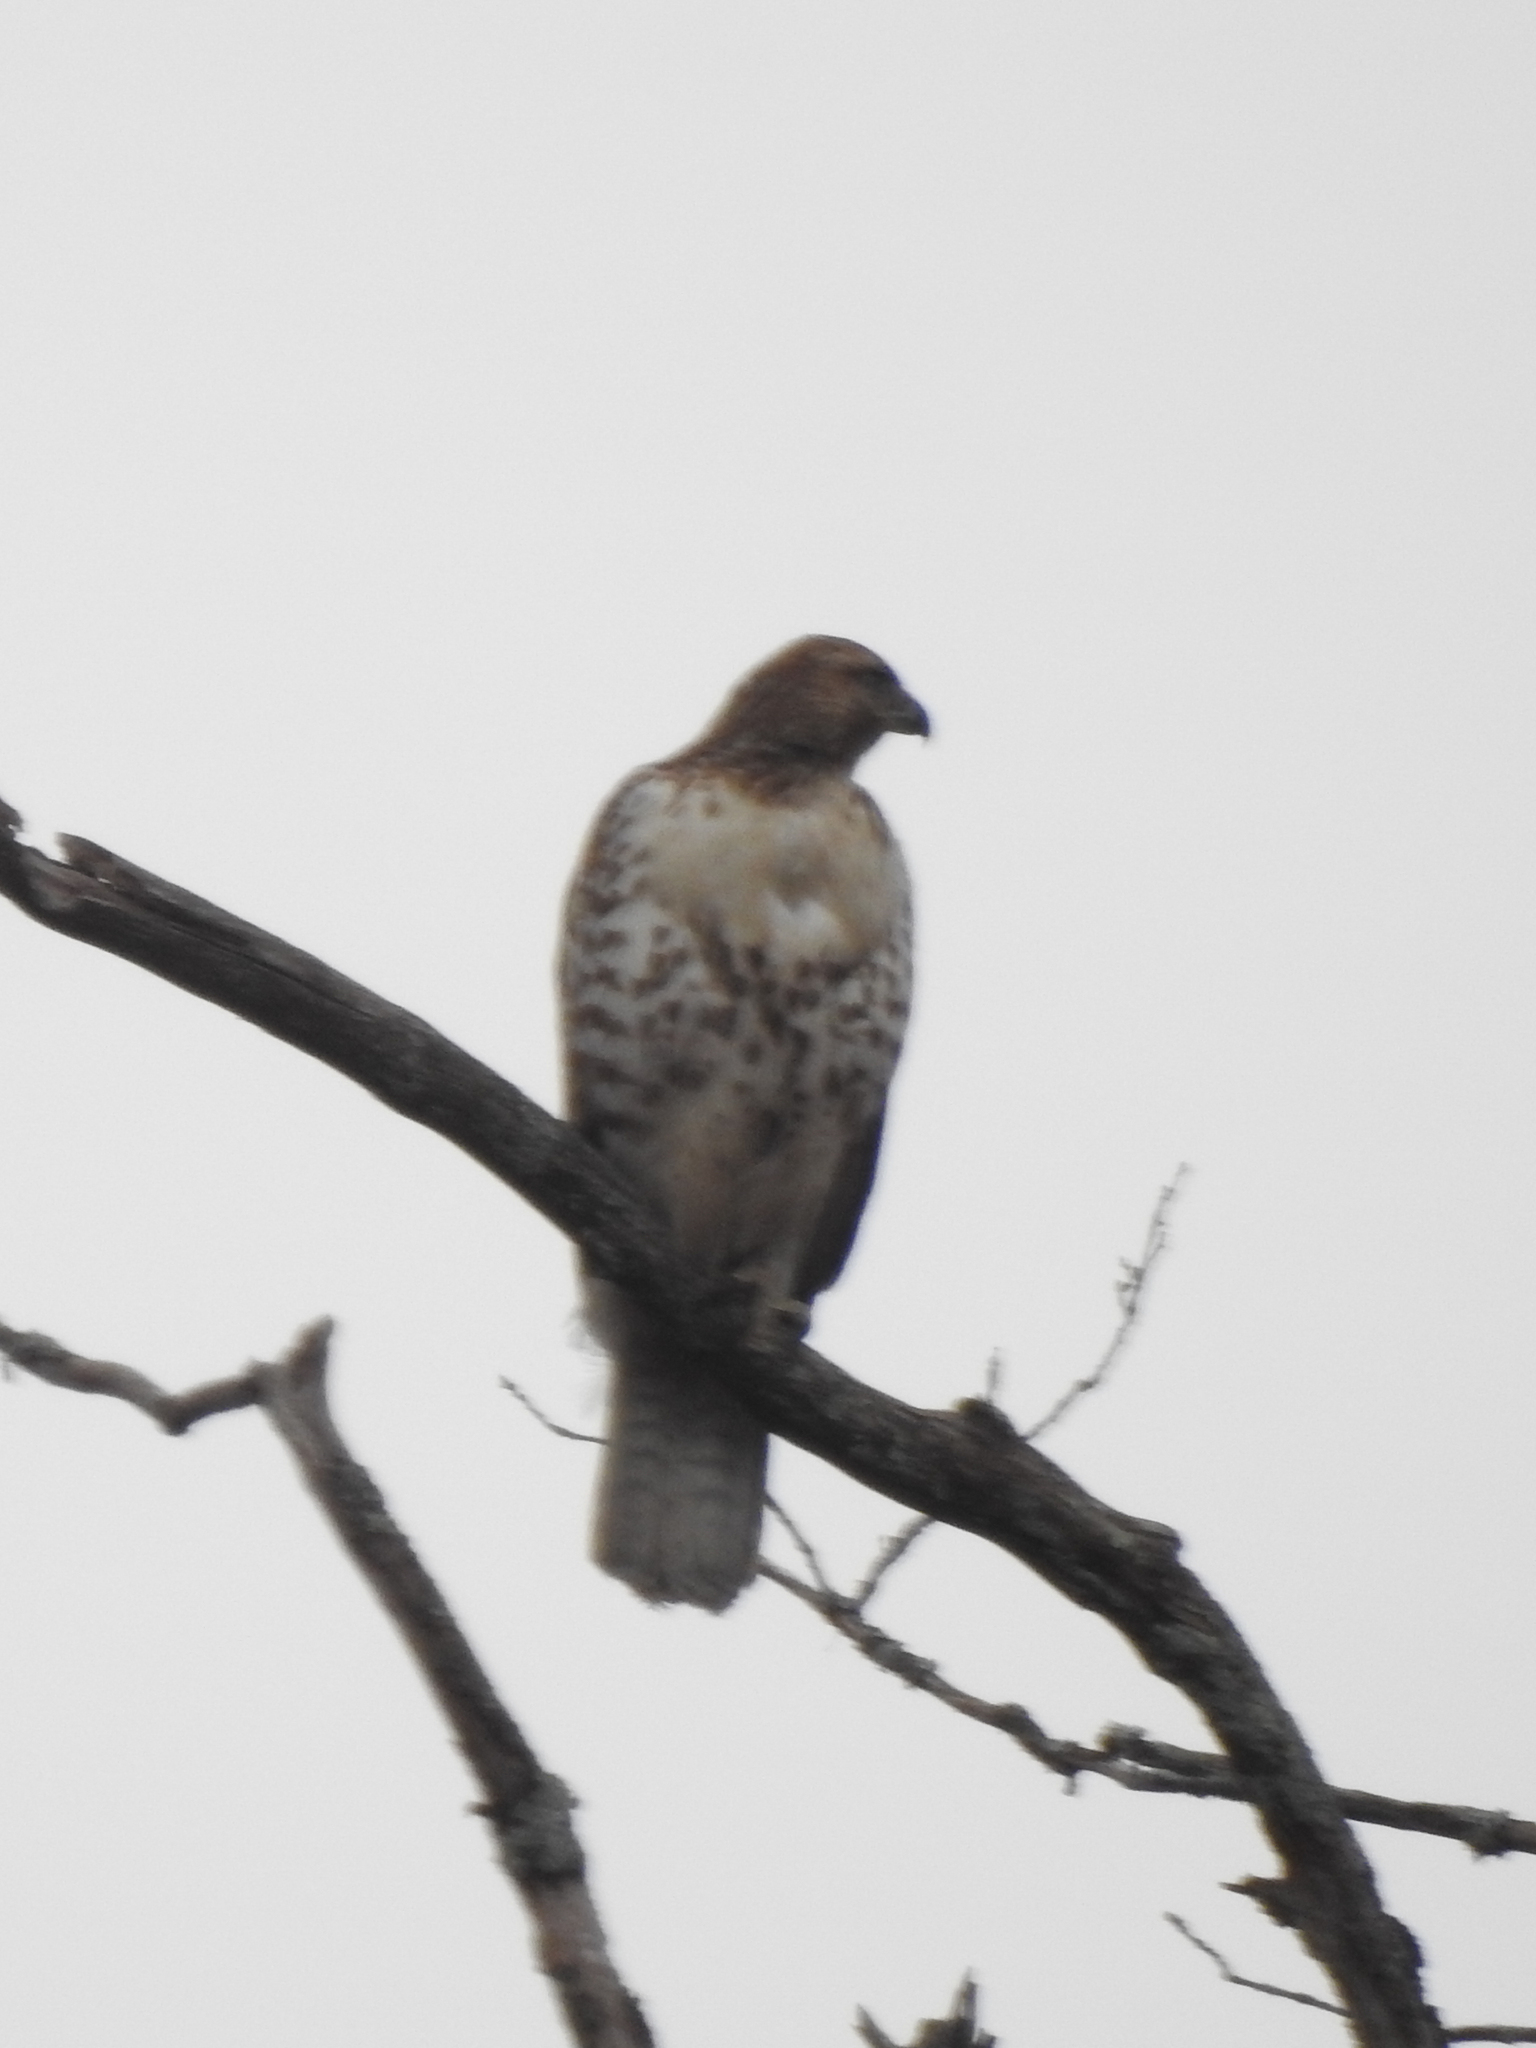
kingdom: Animalia
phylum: Chordata
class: Aves
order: Accipitriformes
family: Accipitridae
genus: Buteo
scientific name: Buteo jamaicensis
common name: Red-tailed hawk
